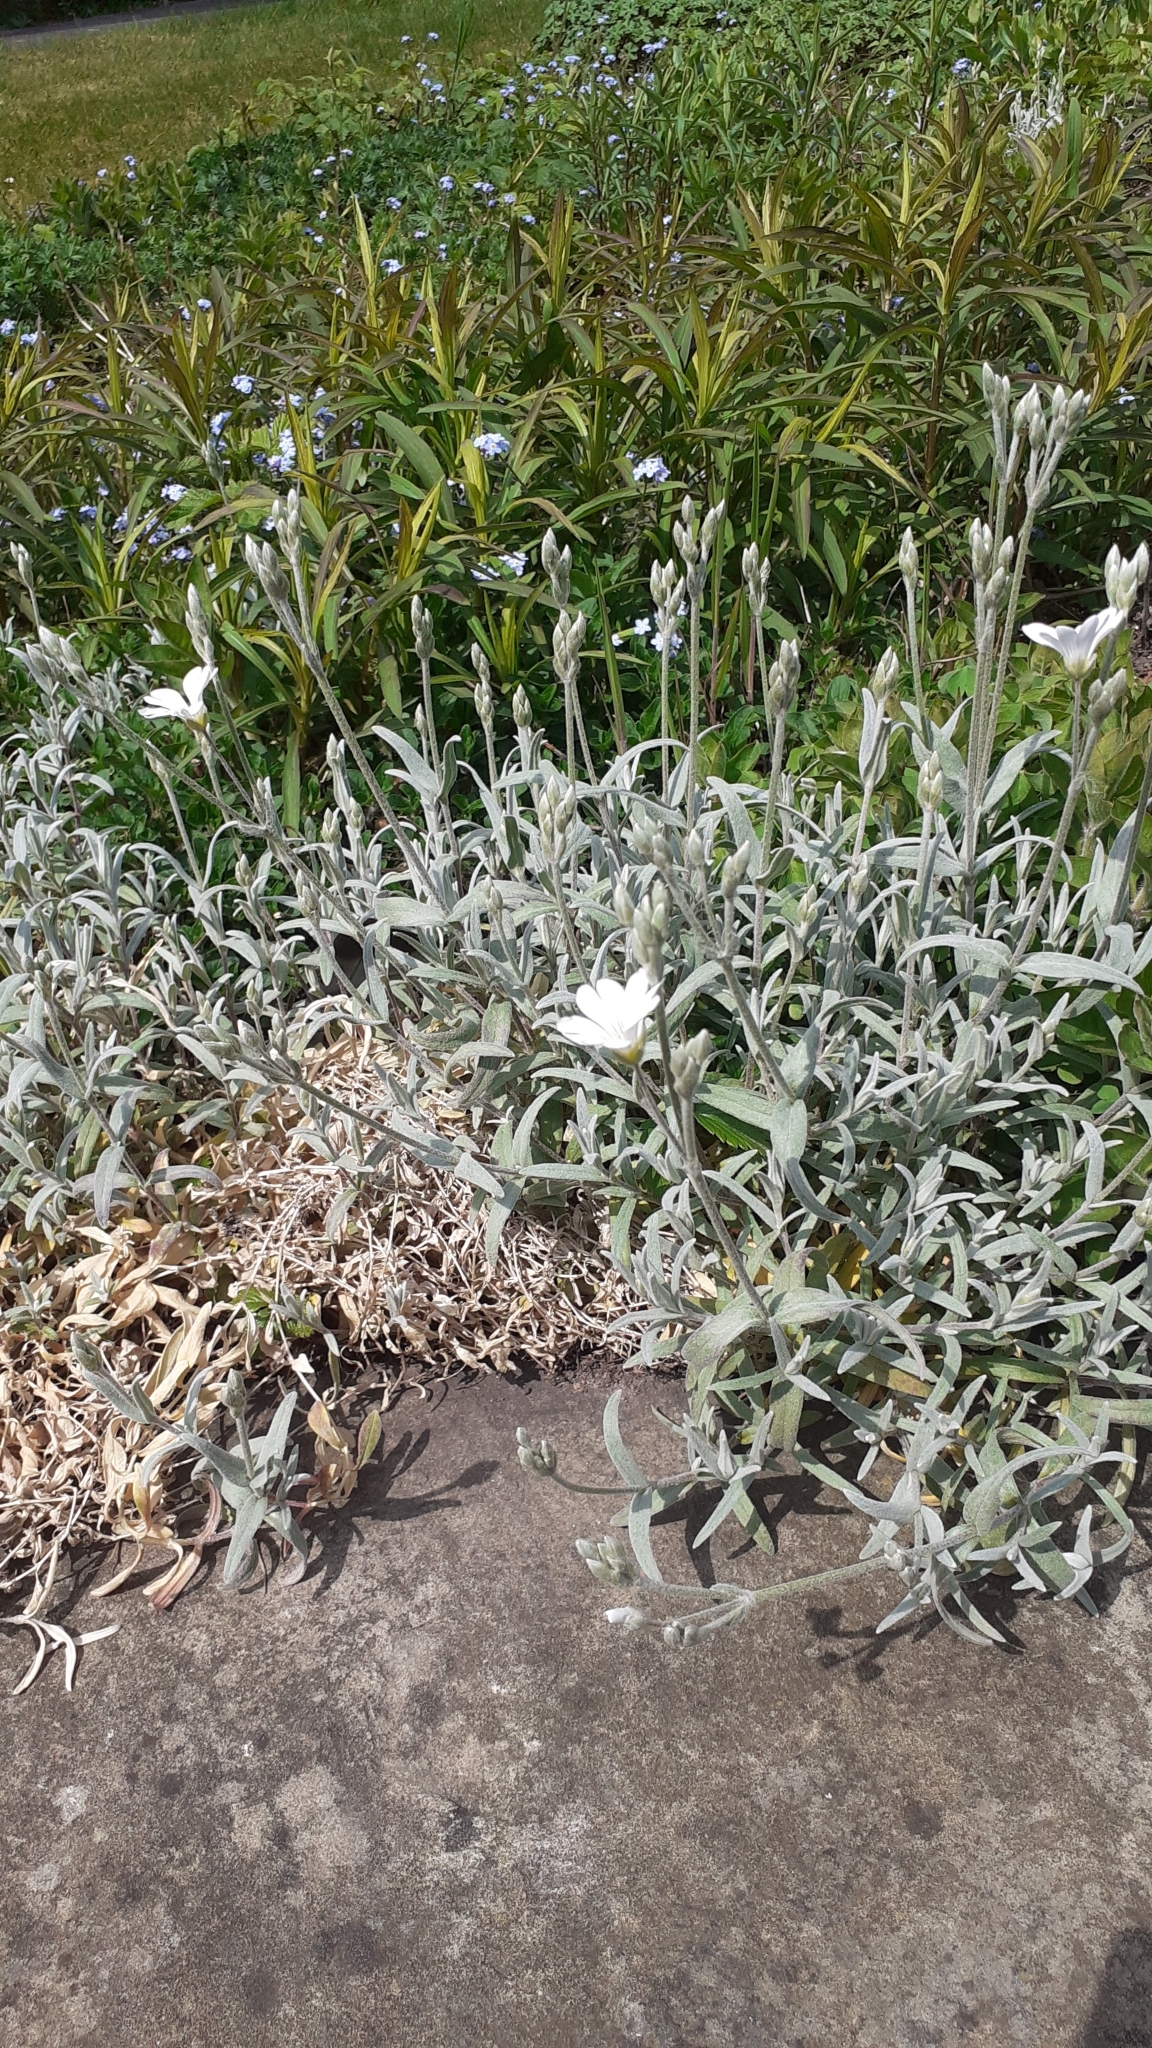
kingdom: Plantae
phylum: Tracheophyta
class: Magnoliopsida
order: Caryophyllales
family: Caryophyllaceae
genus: Cerastium
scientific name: Cerastium tomentosum
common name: Snow-in-summer
